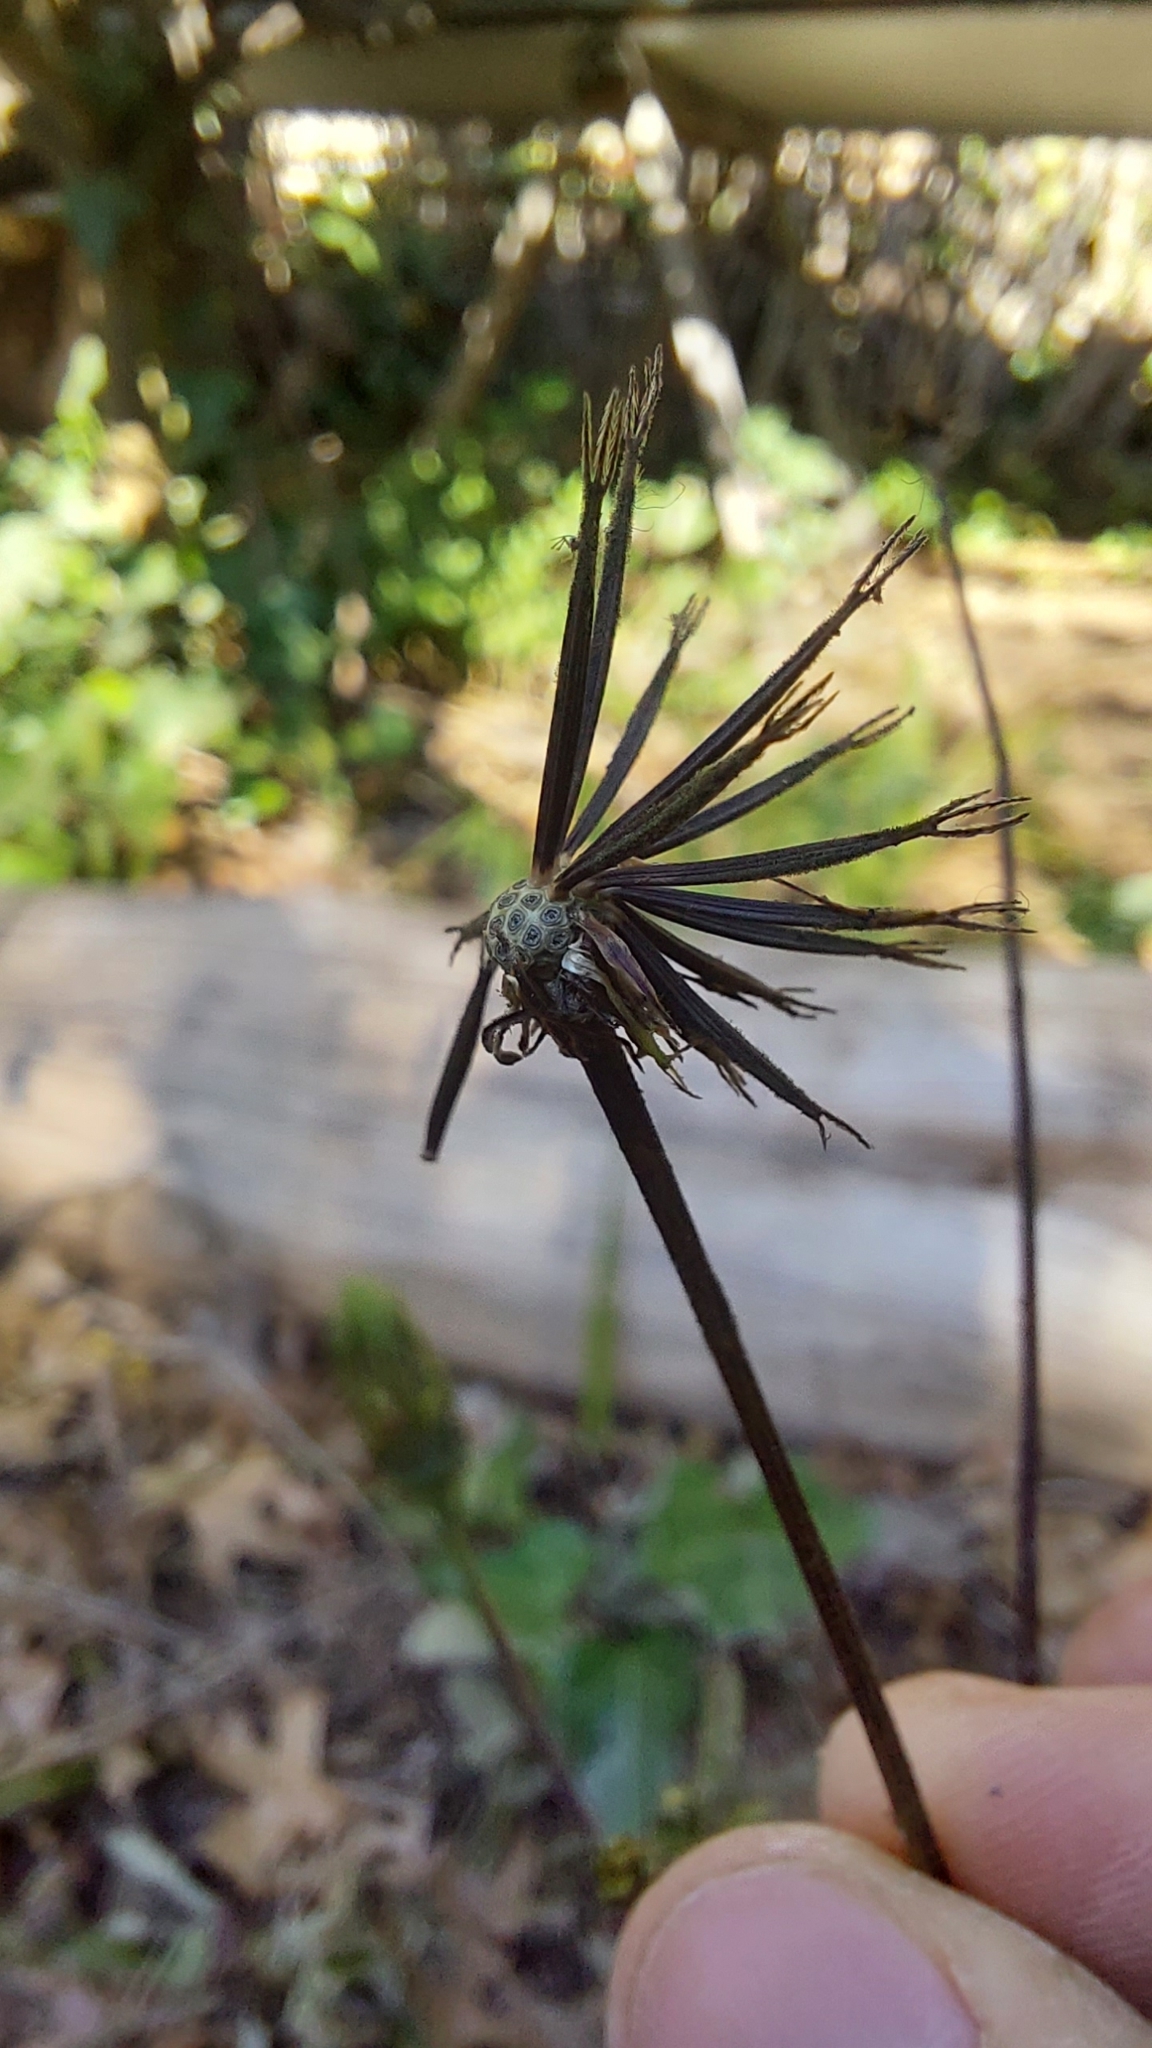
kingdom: Plantae
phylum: Tracheophyta
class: Magnoliopsida
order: Asterales
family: Asteraceae
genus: Bidens
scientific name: Bidens subalternans
